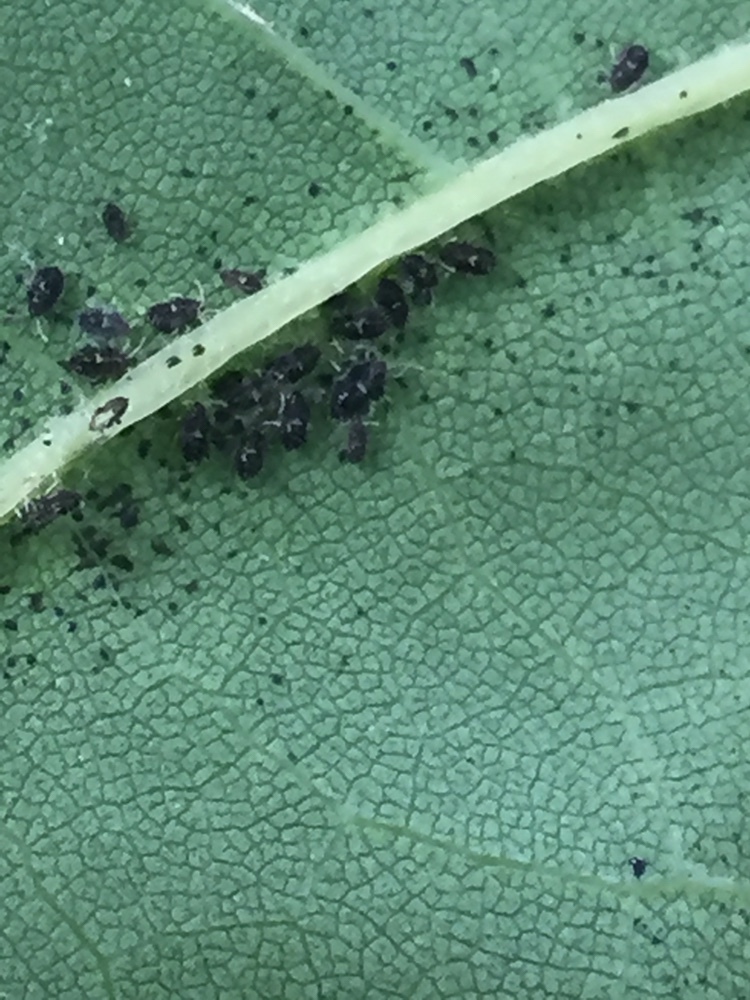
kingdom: Animalia
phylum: Arthropoda
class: Insecta
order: Hemiptera
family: Tingidae
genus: Corythucha
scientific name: Corythucha ciliata
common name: Sycamore lace bug
